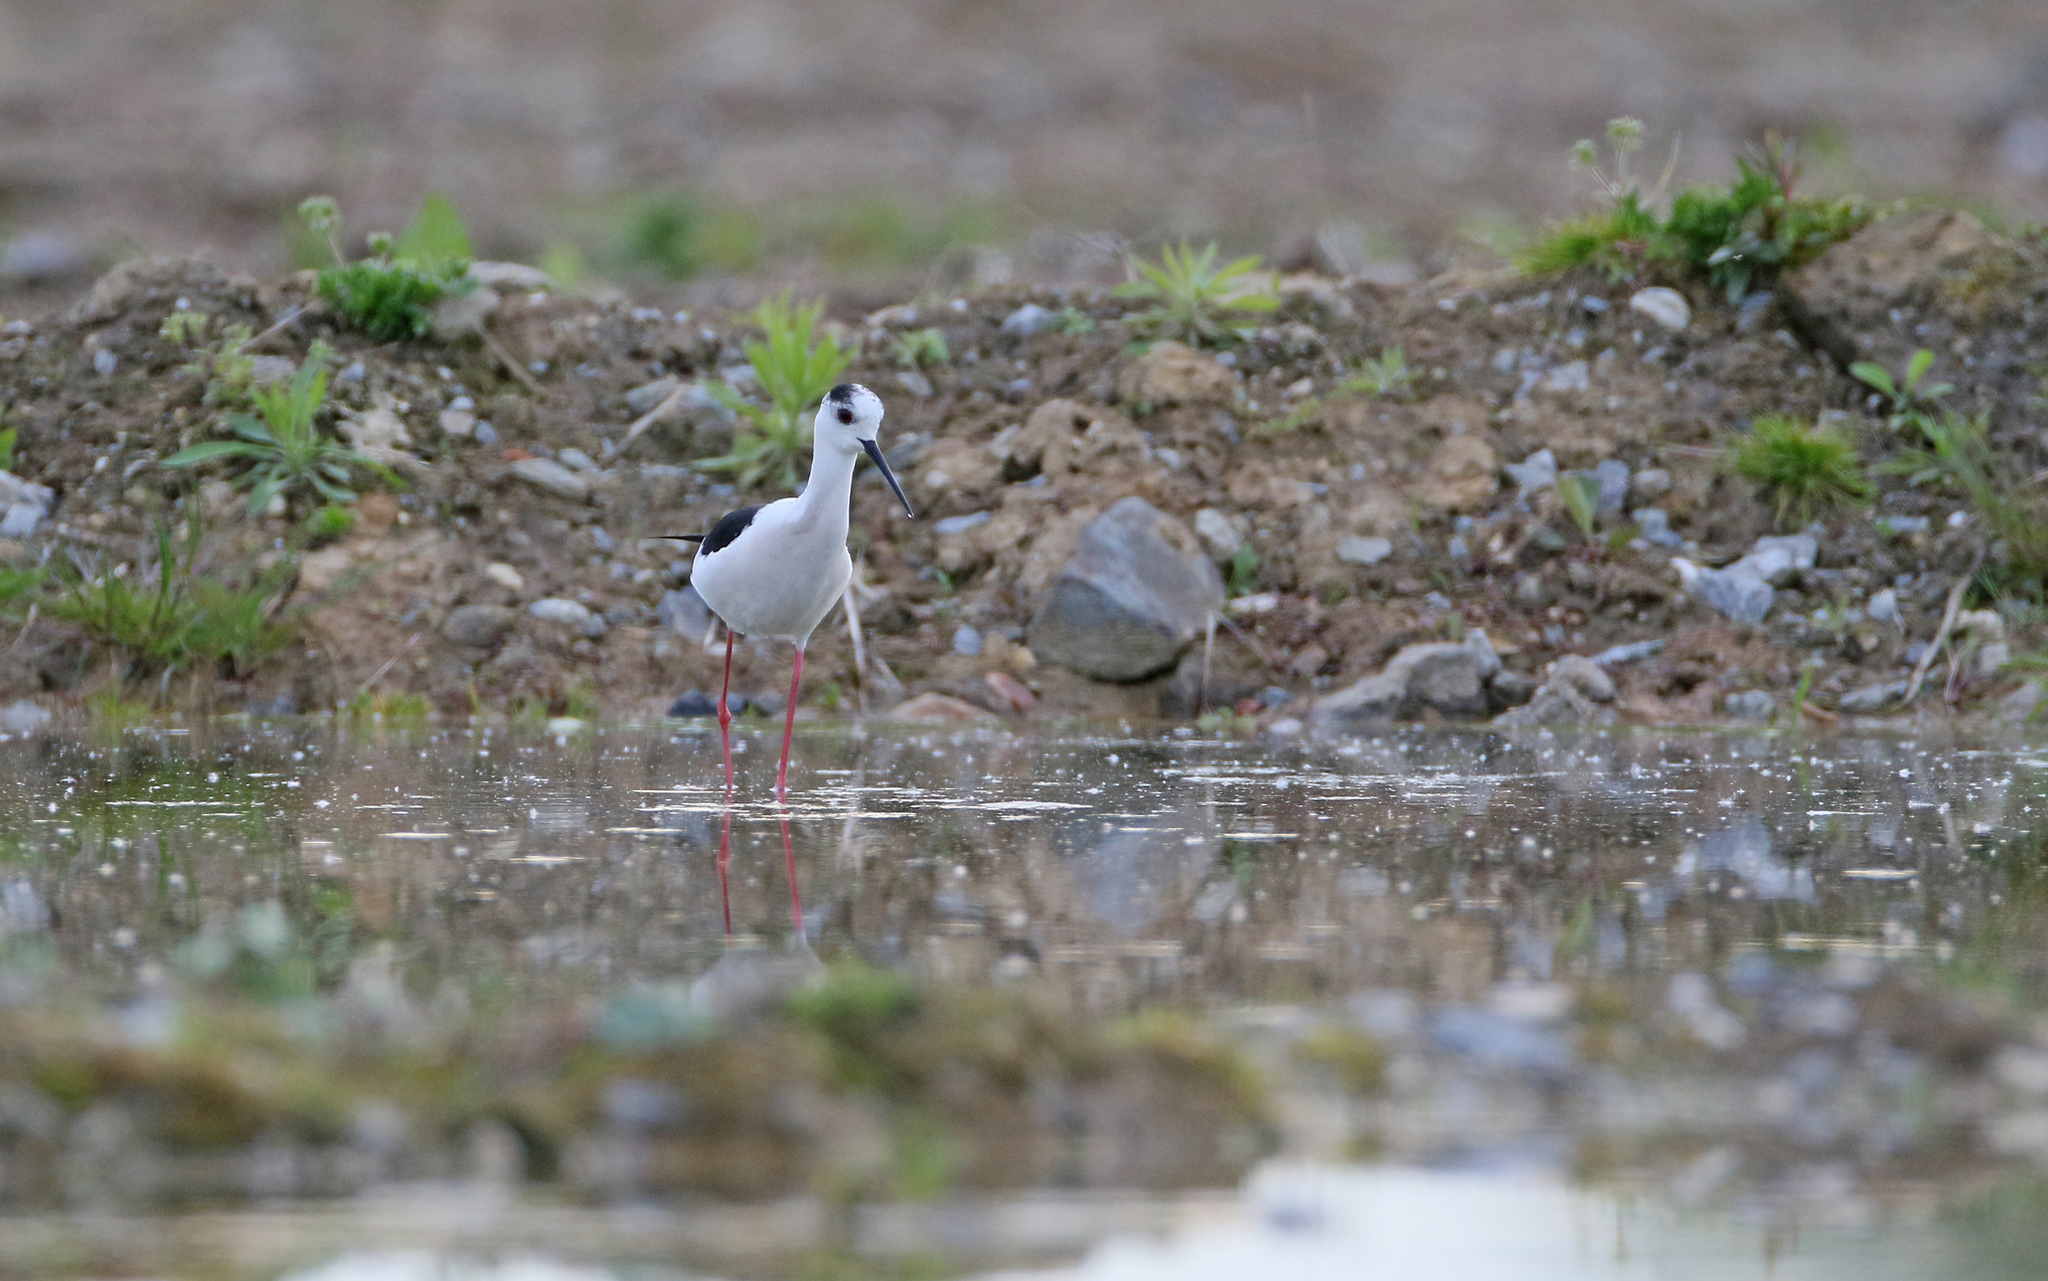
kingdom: Animalia
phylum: Chordata
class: Aves
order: Charadriiformes
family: Recurvirostridae
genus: Himantopus
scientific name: Himantopus himantopus
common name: Black-winged stilt
